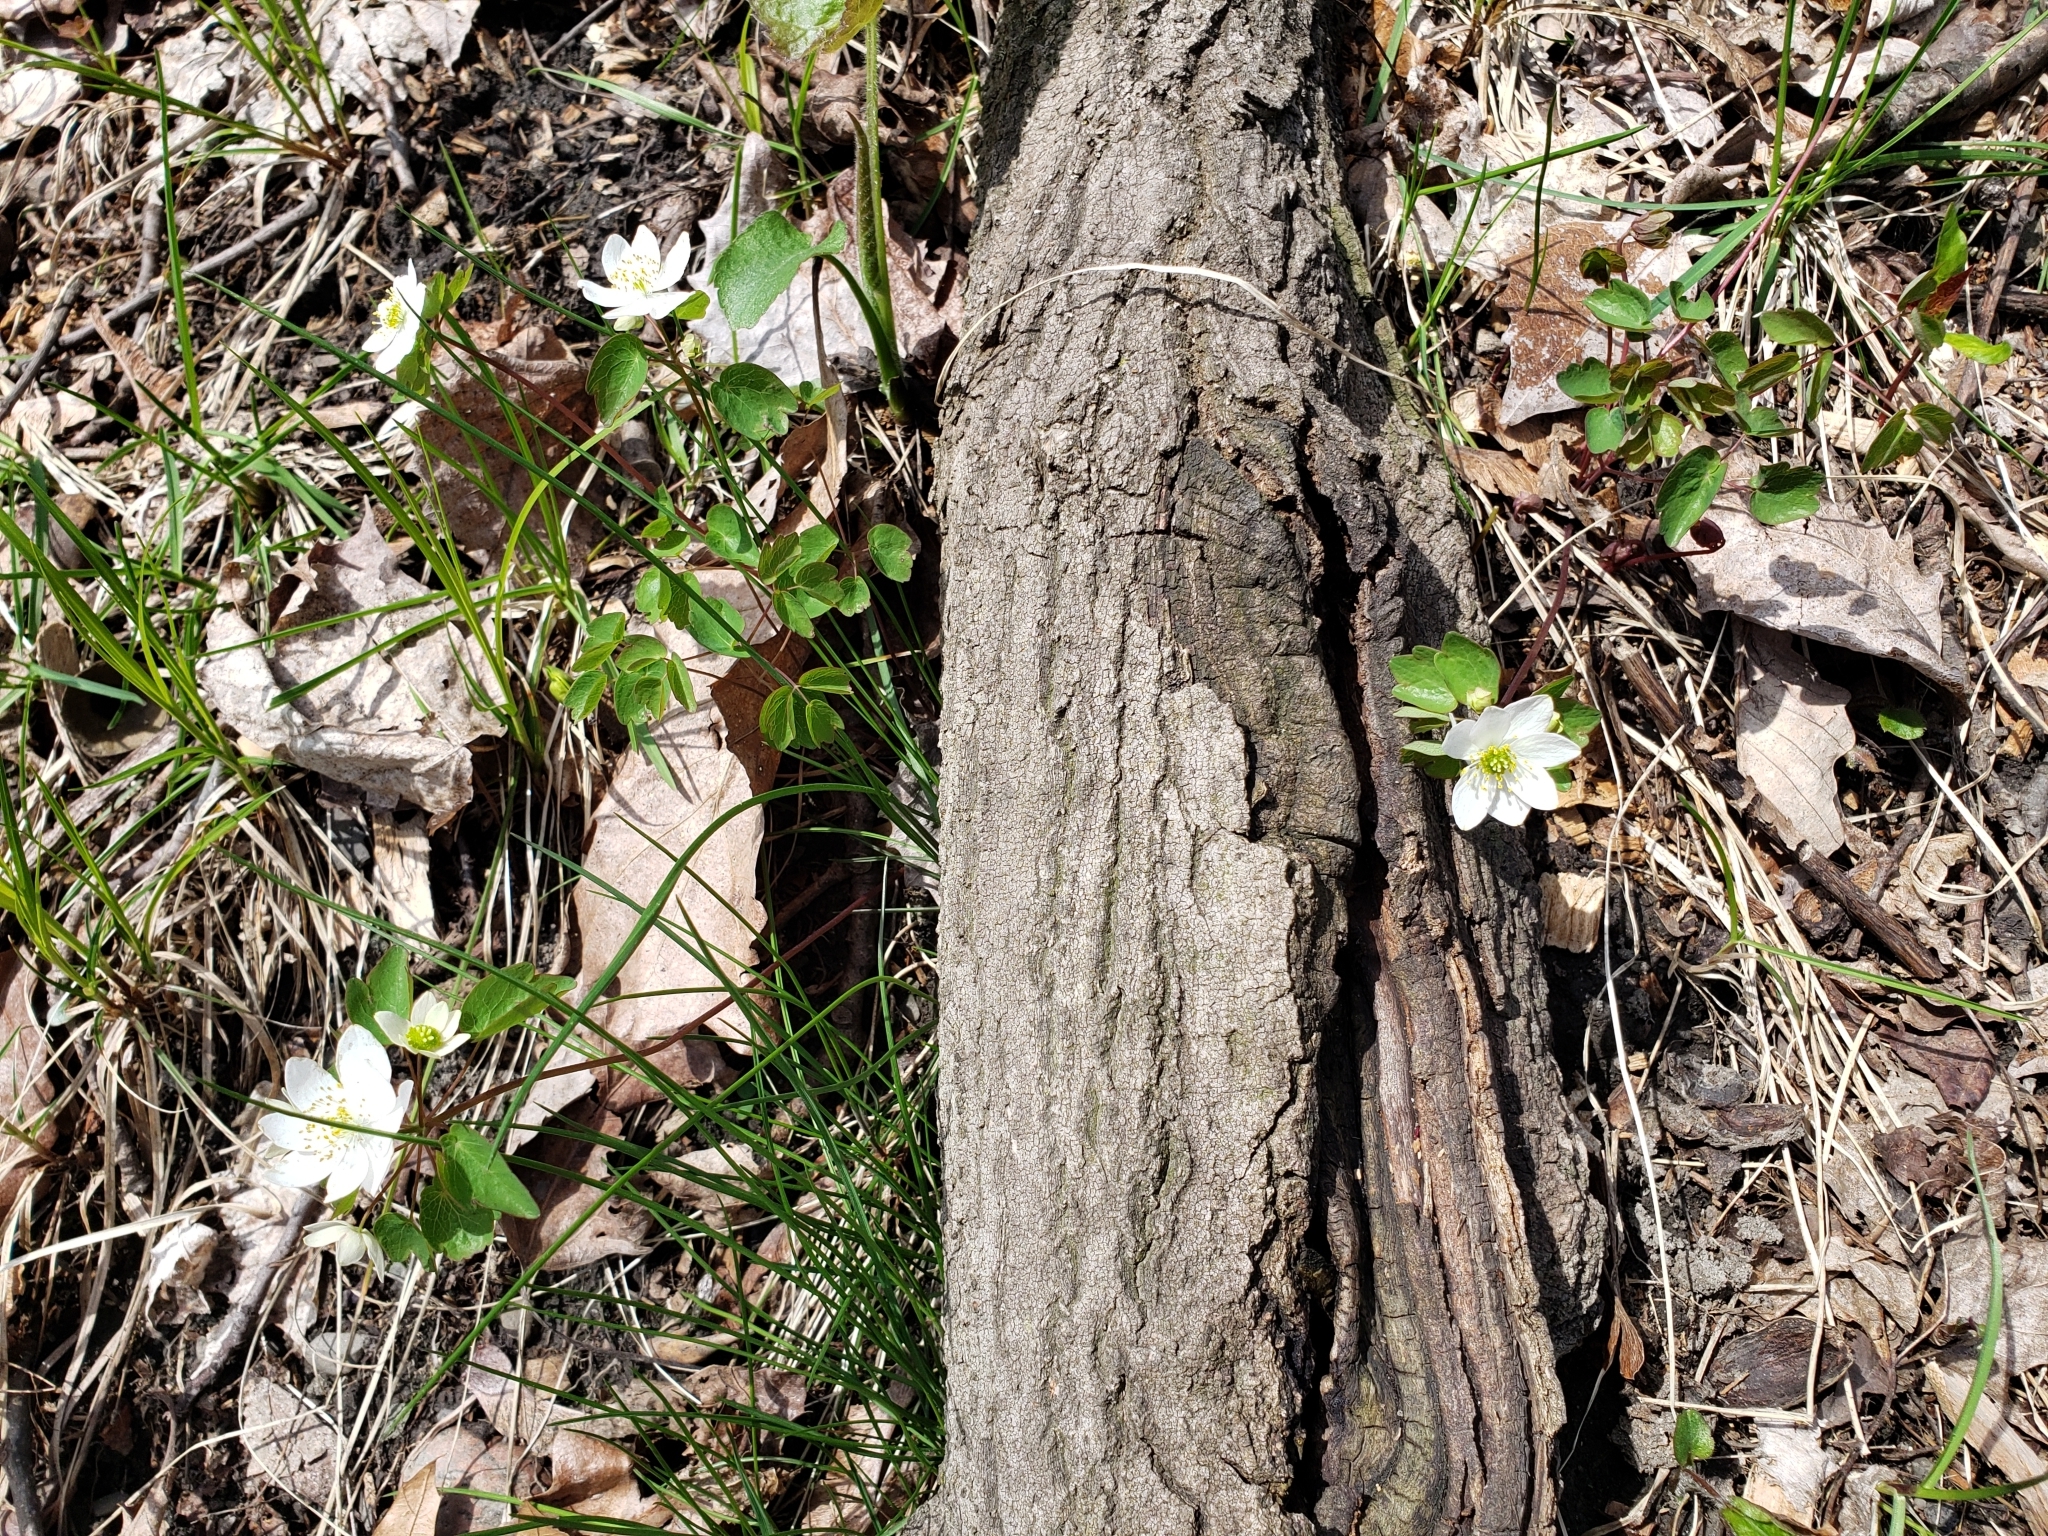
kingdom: Plantae
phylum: Tracheophyta
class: Magnoliopsida
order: Ranunculales
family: Ranunculaceae
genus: Thalictrum
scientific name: Thalictrum thalictroides
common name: Rue-anemone
